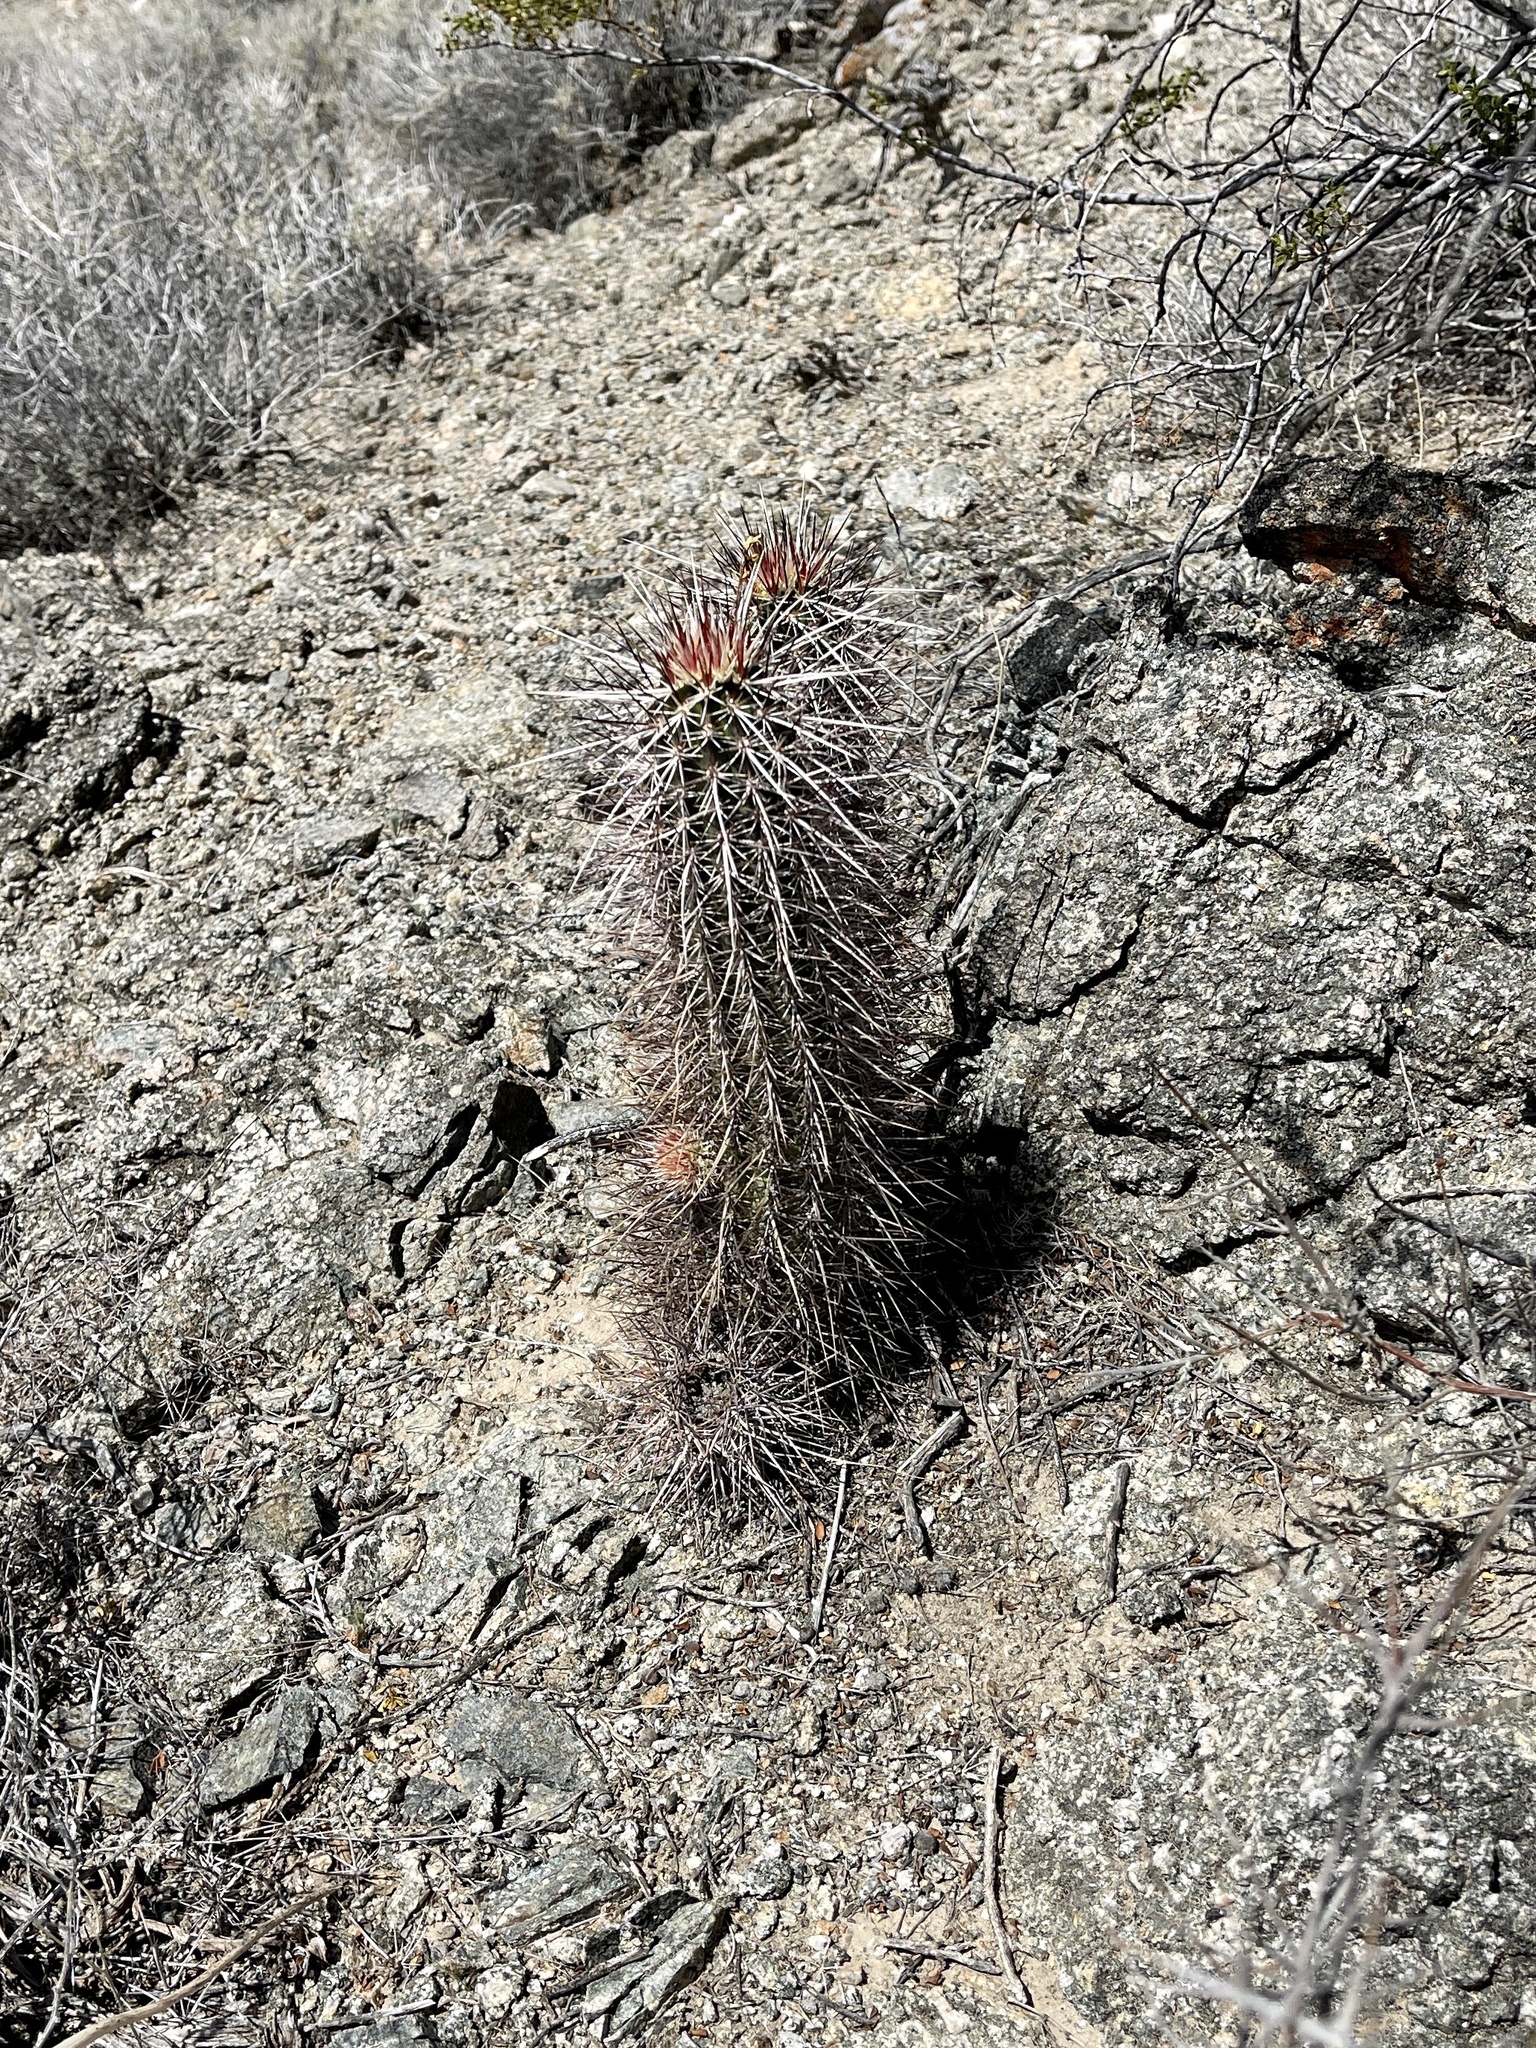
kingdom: Plantae
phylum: Tracheophyta
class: Magnoliopsida
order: Caryophyllales
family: Cactaceae
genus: Echinocereus
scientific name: Echinocereus engelmannii
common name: Engelmann's hedgehog cactus
